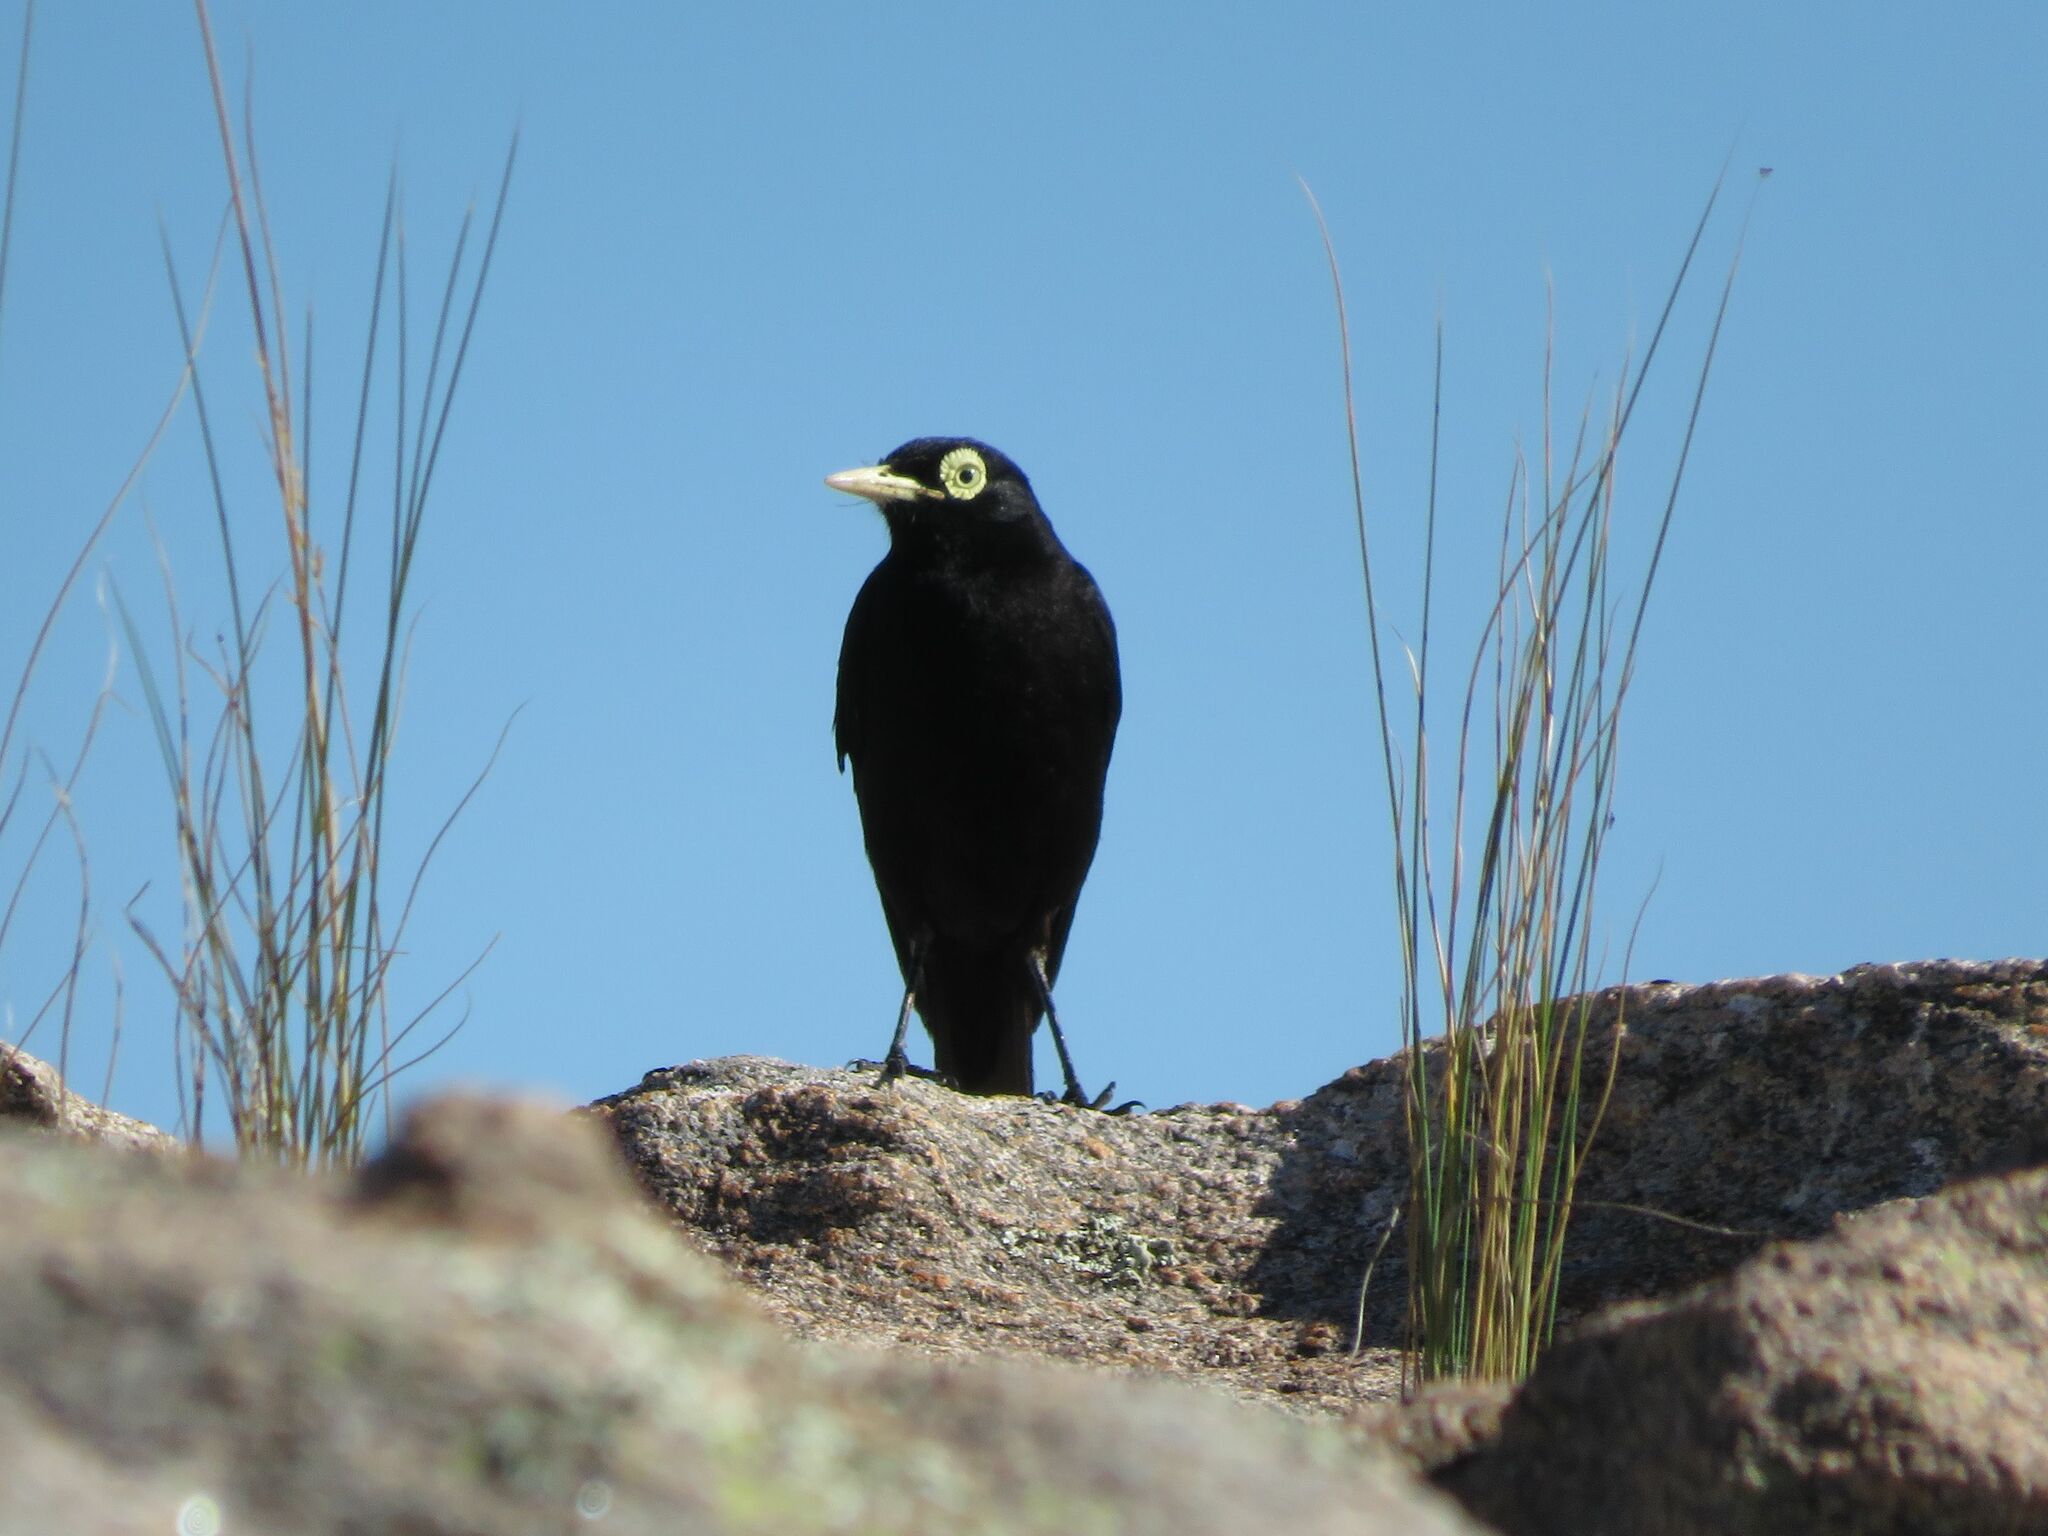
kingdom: Animalia
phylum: Chordata
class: Aves
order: Passeriformes
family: Tyrannidae
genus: Hymenops
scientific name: Hymenops perspicillatus
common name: Spectacled tyrant
